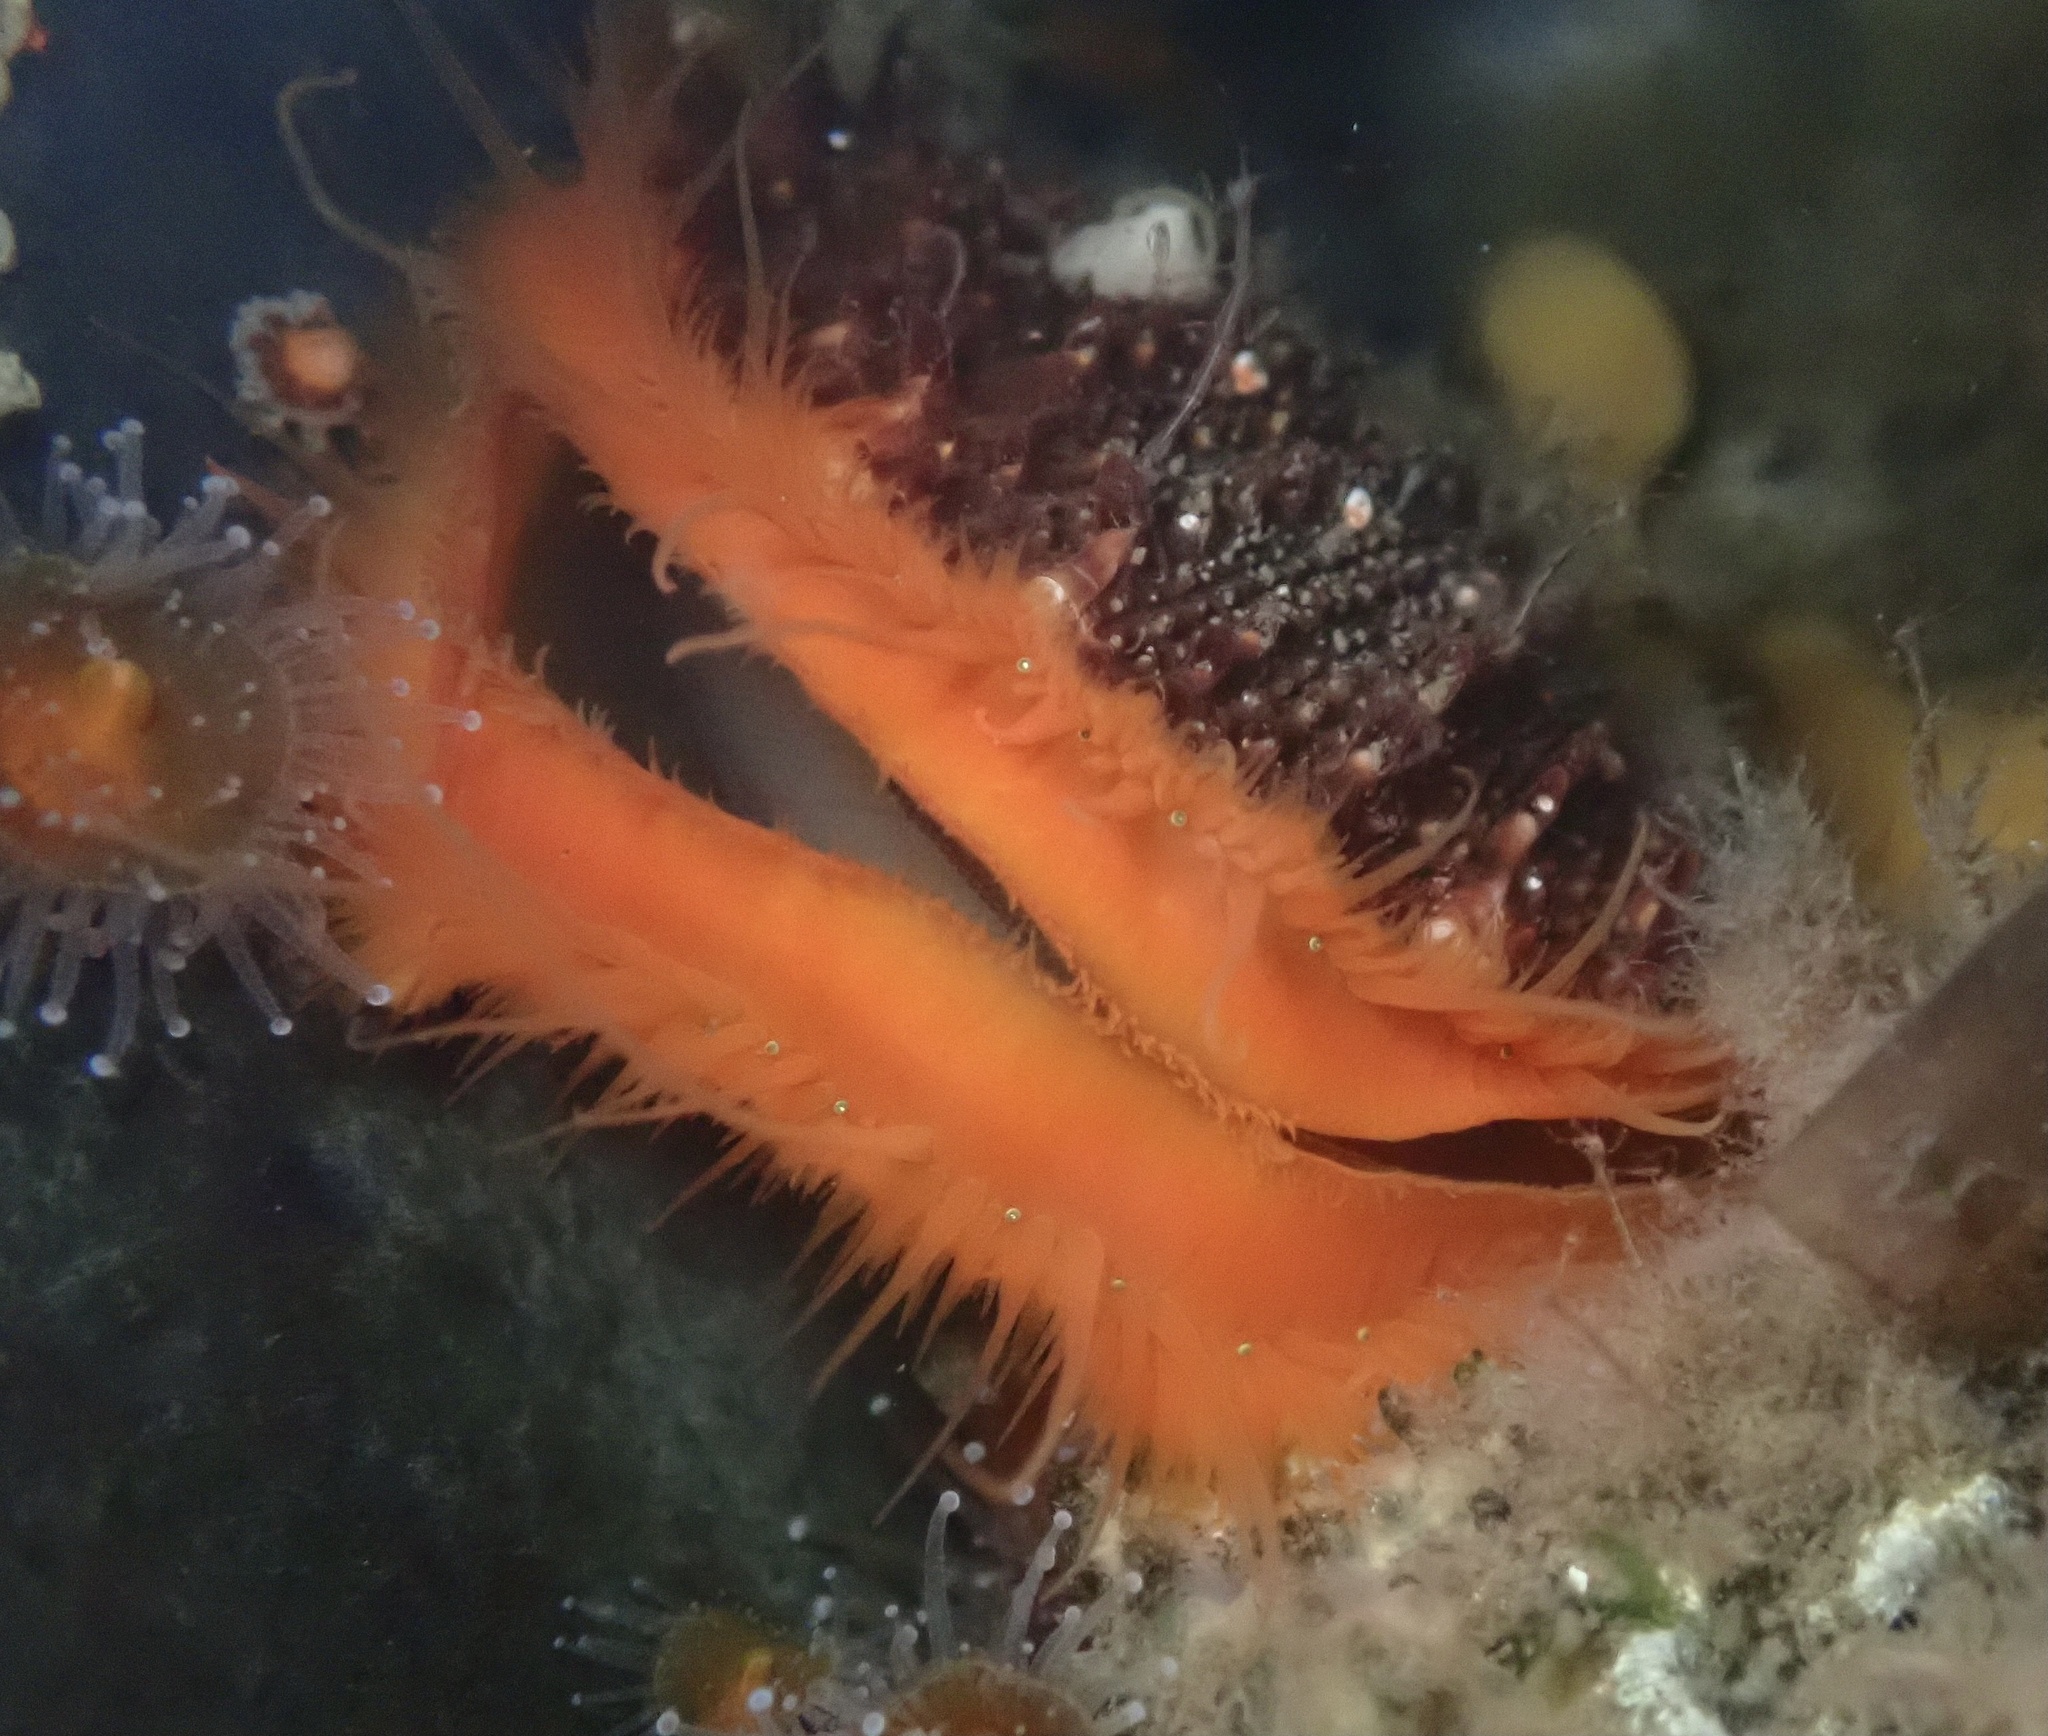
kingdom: Animalia
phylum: Mollusca
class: Bivalvia
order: Pectinida
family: Pectinidae
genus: Crassadoma
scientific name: Crassadoma gigantea
